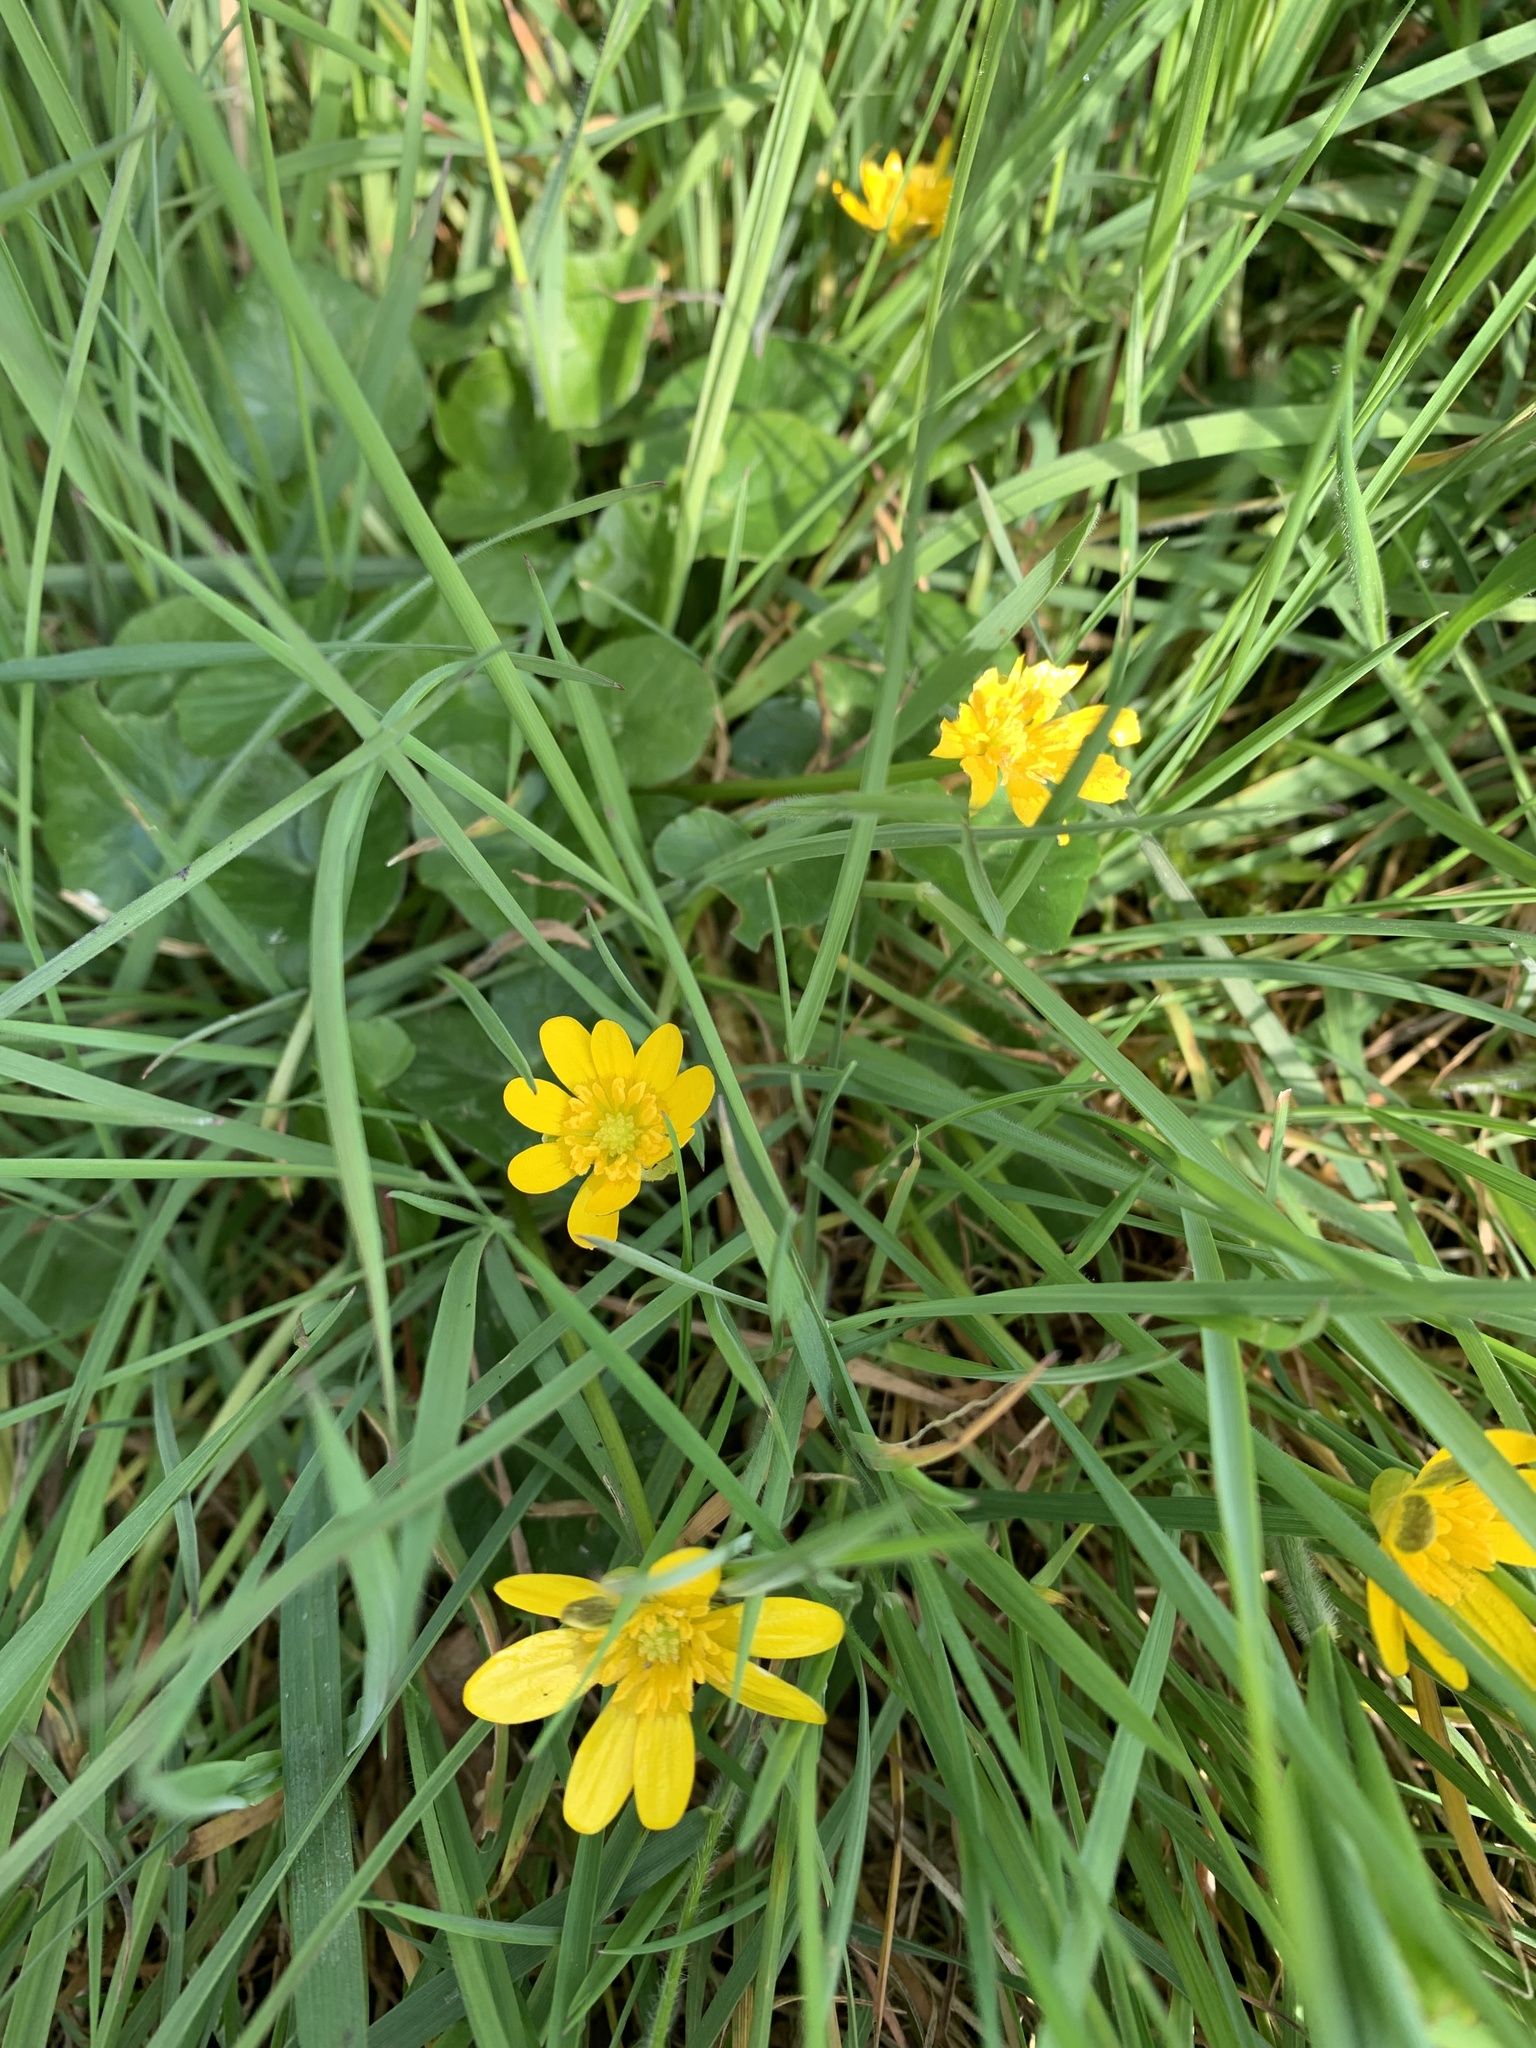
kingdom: Plantae
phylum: Tracheophyta
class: Magnoliopsida
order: Ranunculales
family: Ranunculaceae
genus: Ficaria
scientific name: Ficaria verna
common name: Lesser celandine
